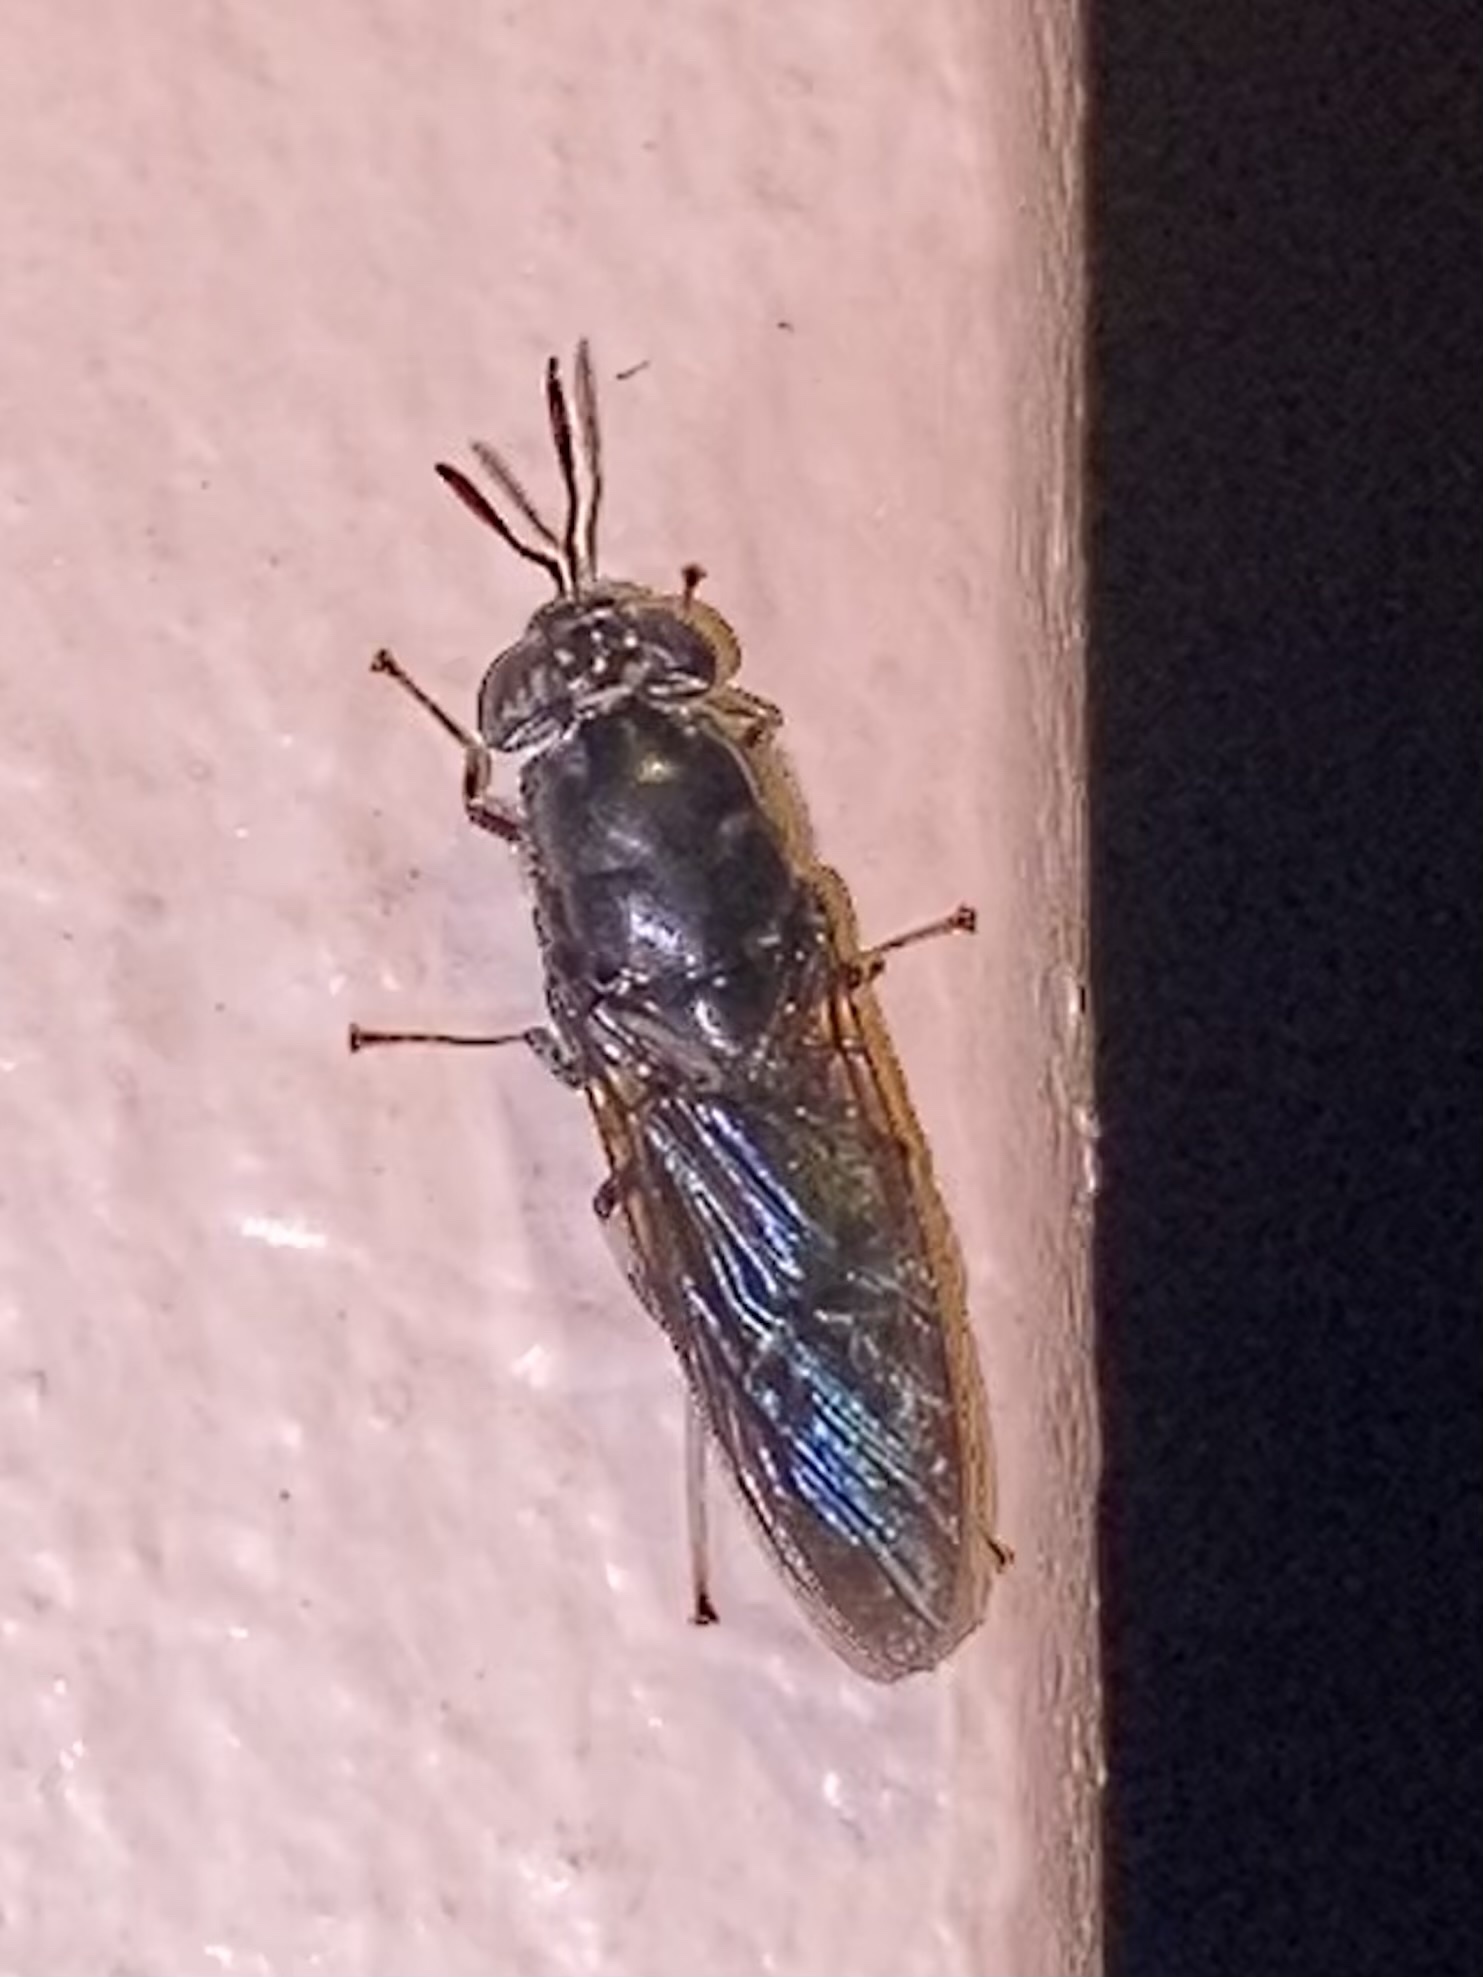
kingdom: Animalia
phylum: Arthropoda
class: Insecta
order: Diptera
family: Stratiomyidae
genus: Hermetia
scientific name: Hermetia illucens
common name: Black soldier fly
